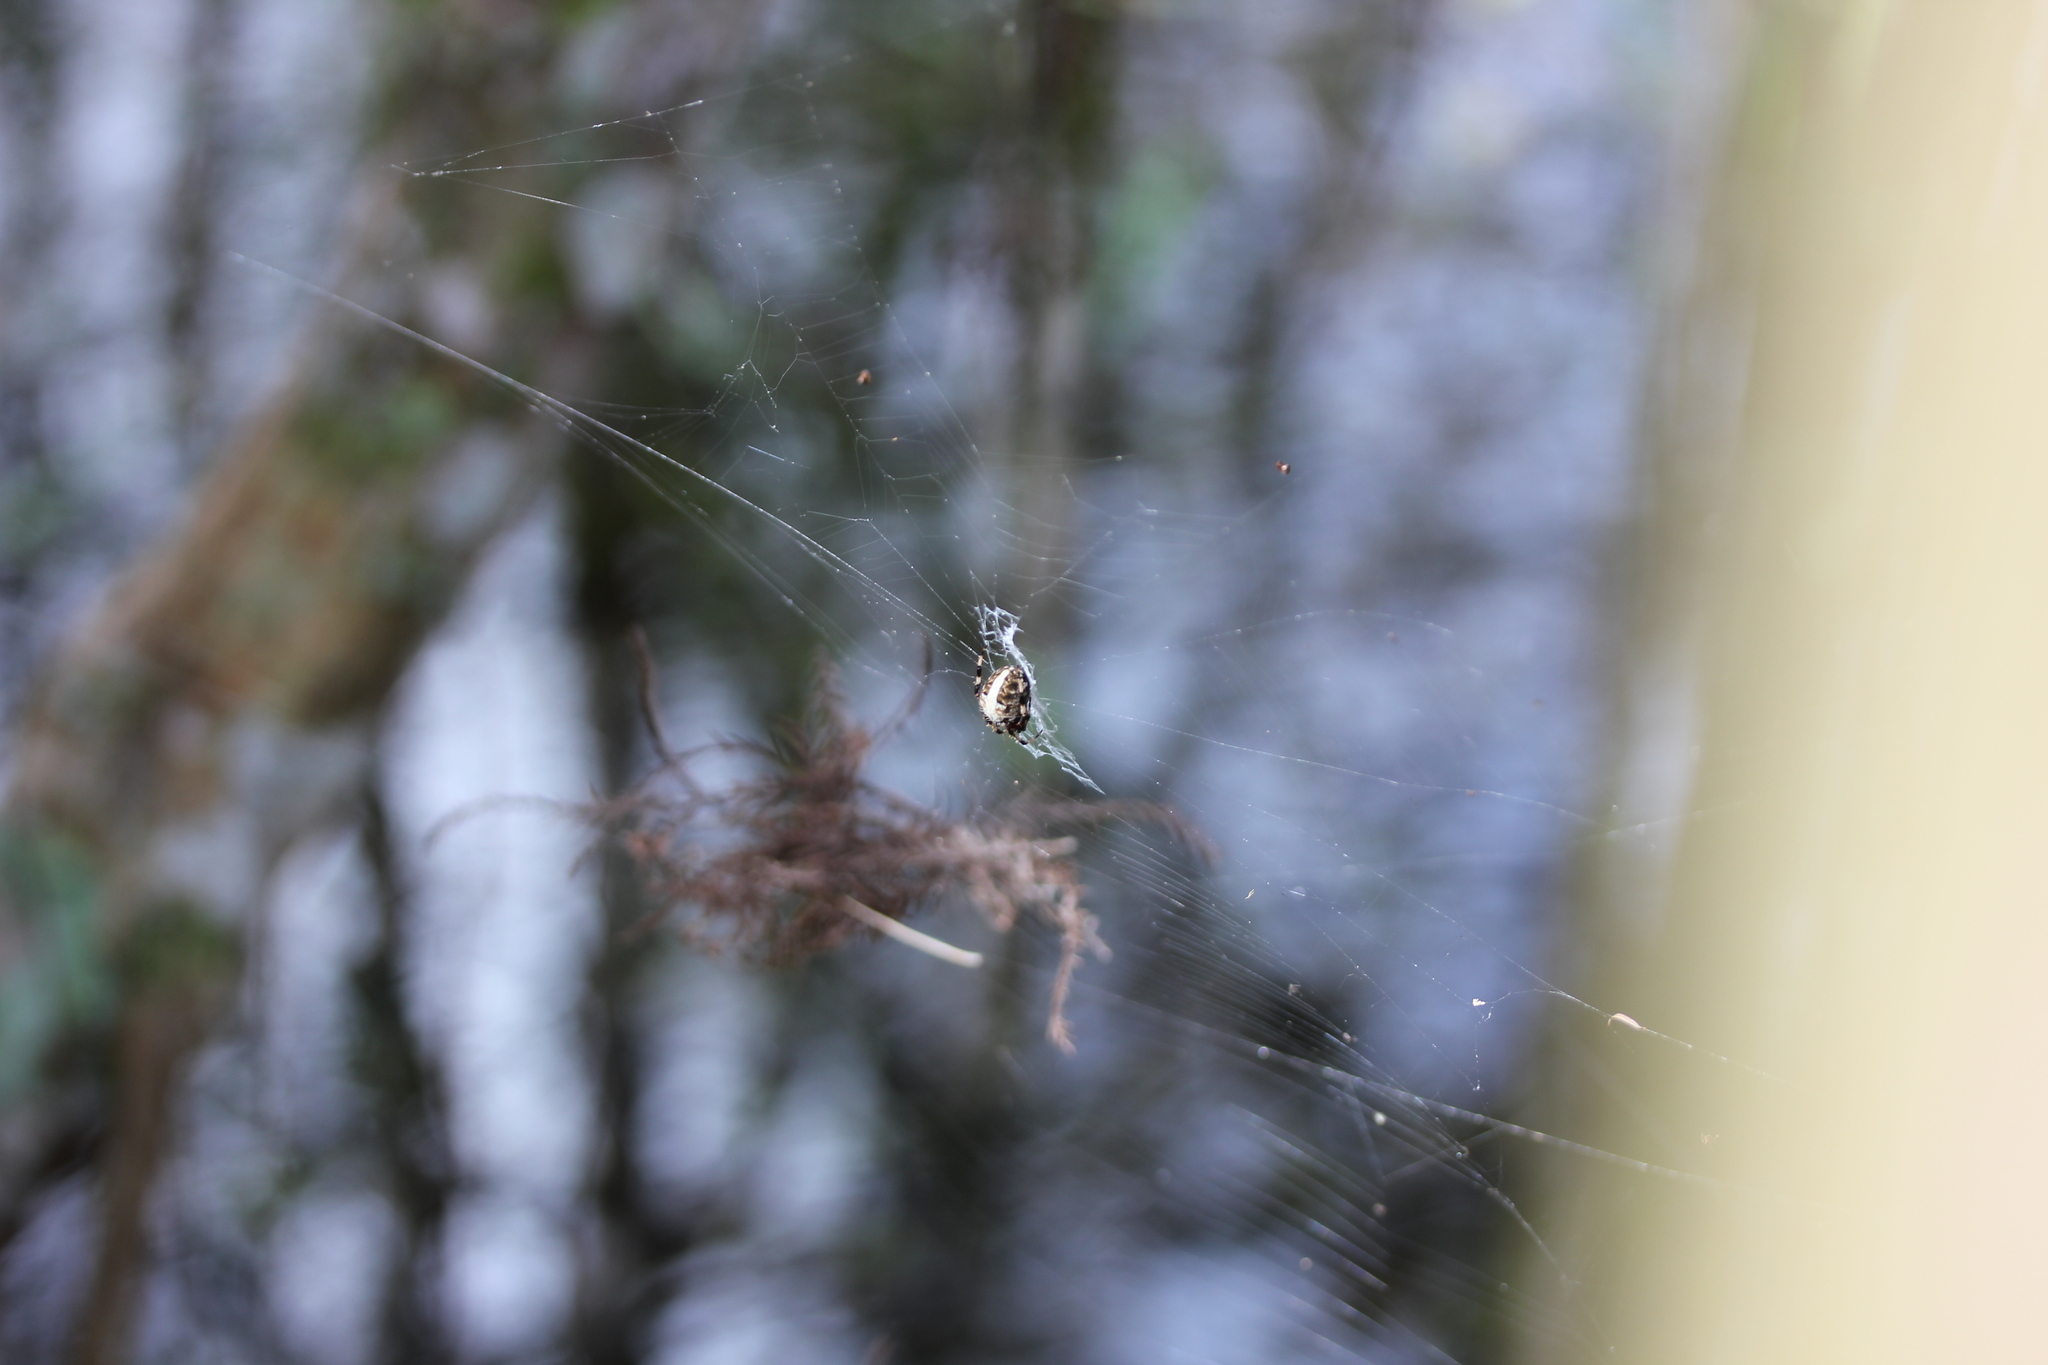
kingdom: Animalia
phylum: Arthropoda
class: Arachnida
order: Araneae
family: Araneidae
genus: Neoscona
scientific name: Neoscona domiciliorum
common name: Red-femured spotted orbweaver
